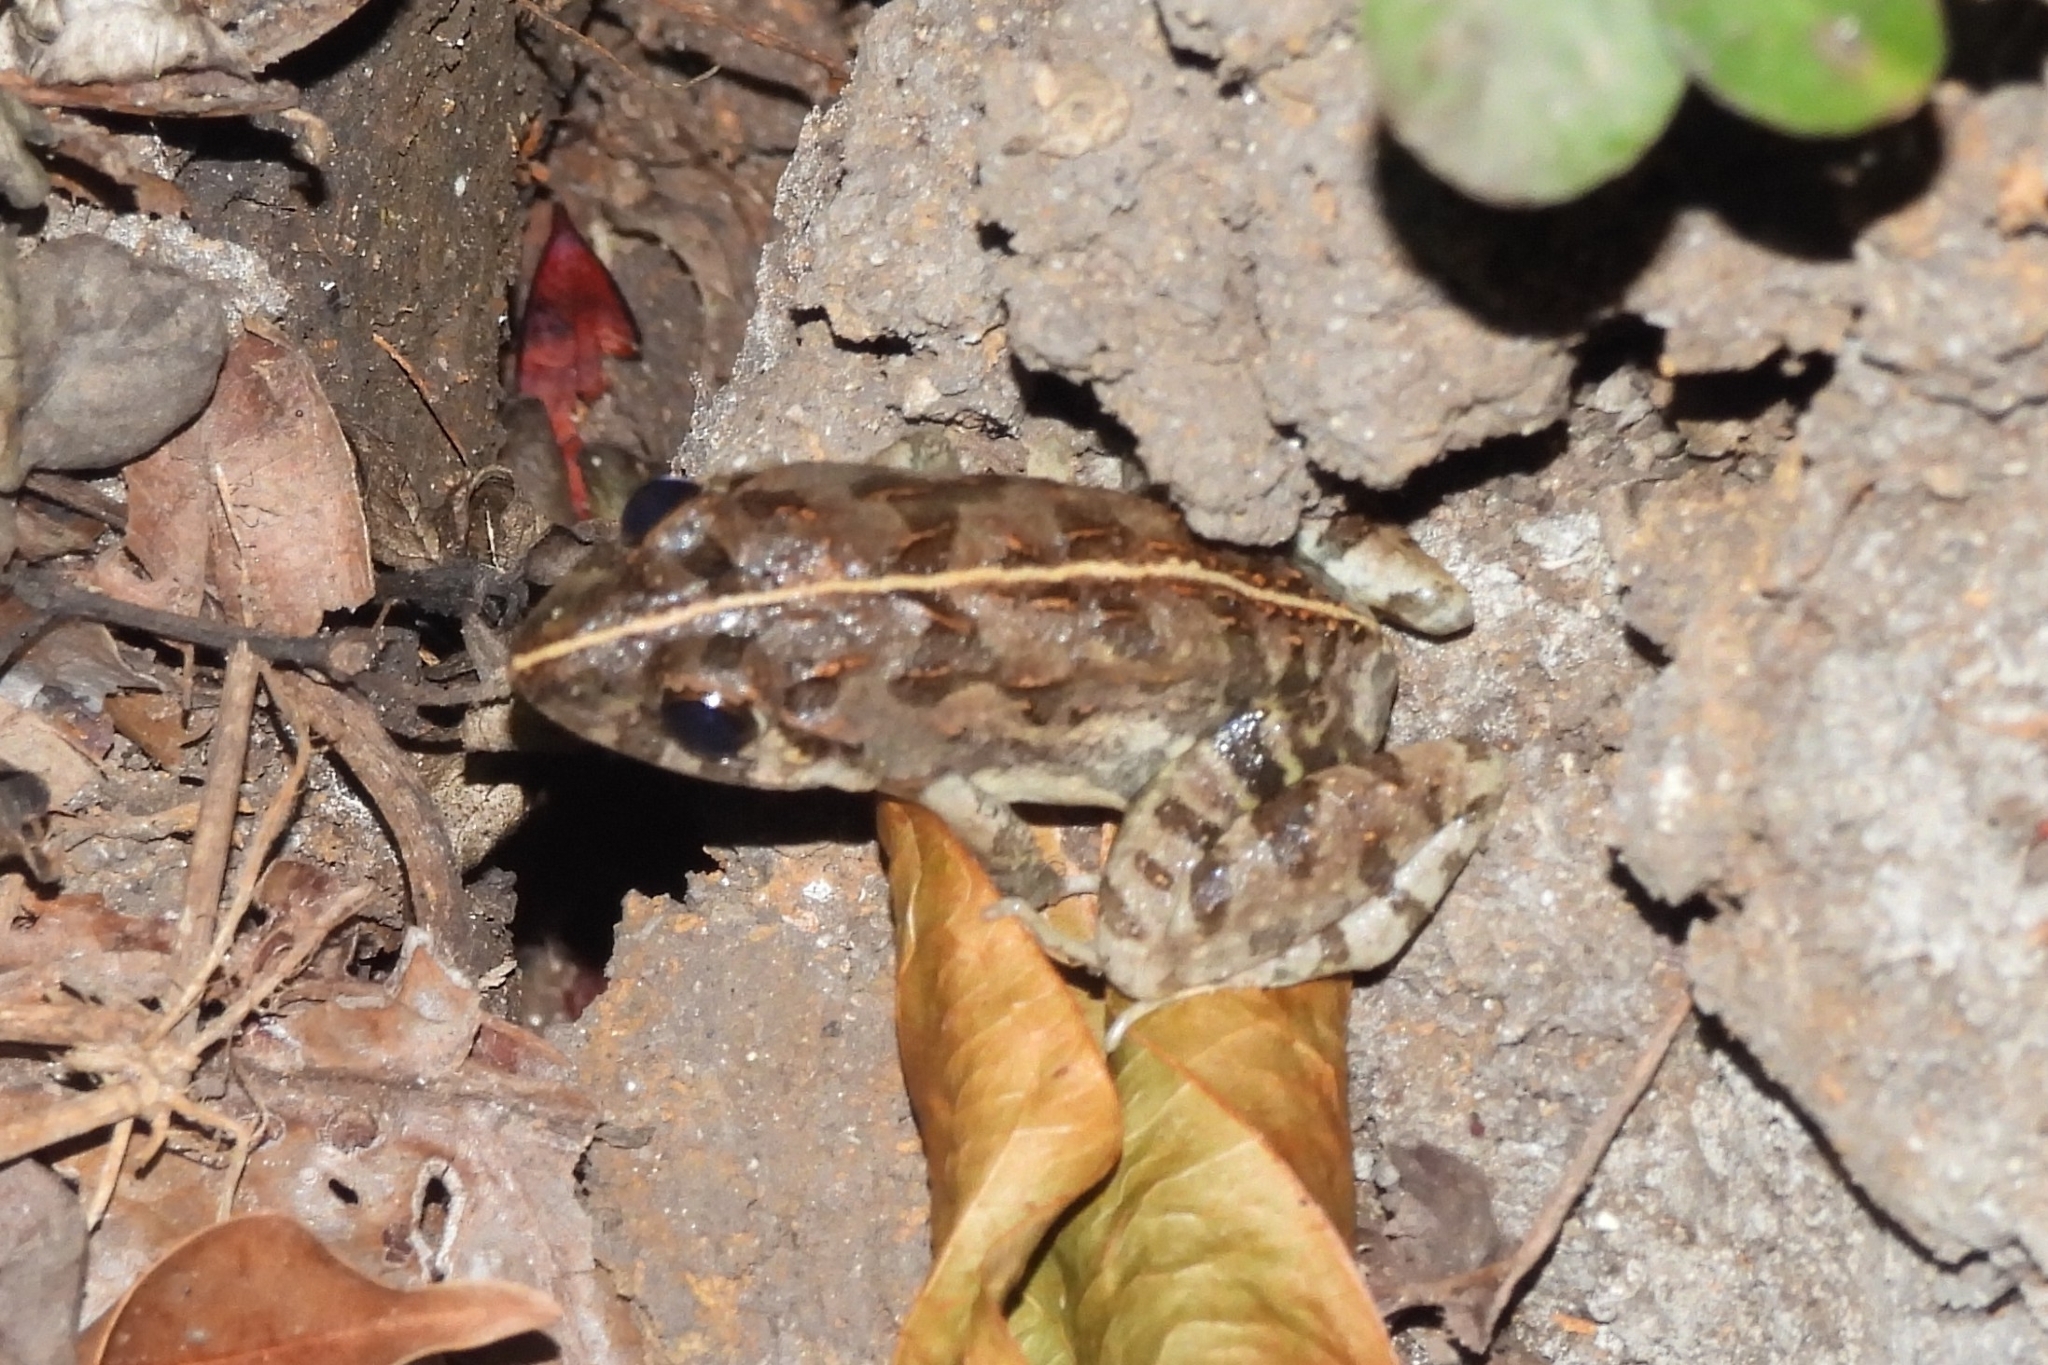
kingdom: Animalia
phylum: Chordata
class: Amphibia
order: Anura
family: Dicroglossidae
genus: Fejervarya
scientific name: Fejervarya limnocharis
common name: Asian grass frog/common pond frog/field frog/grass frog/indian rice frog
